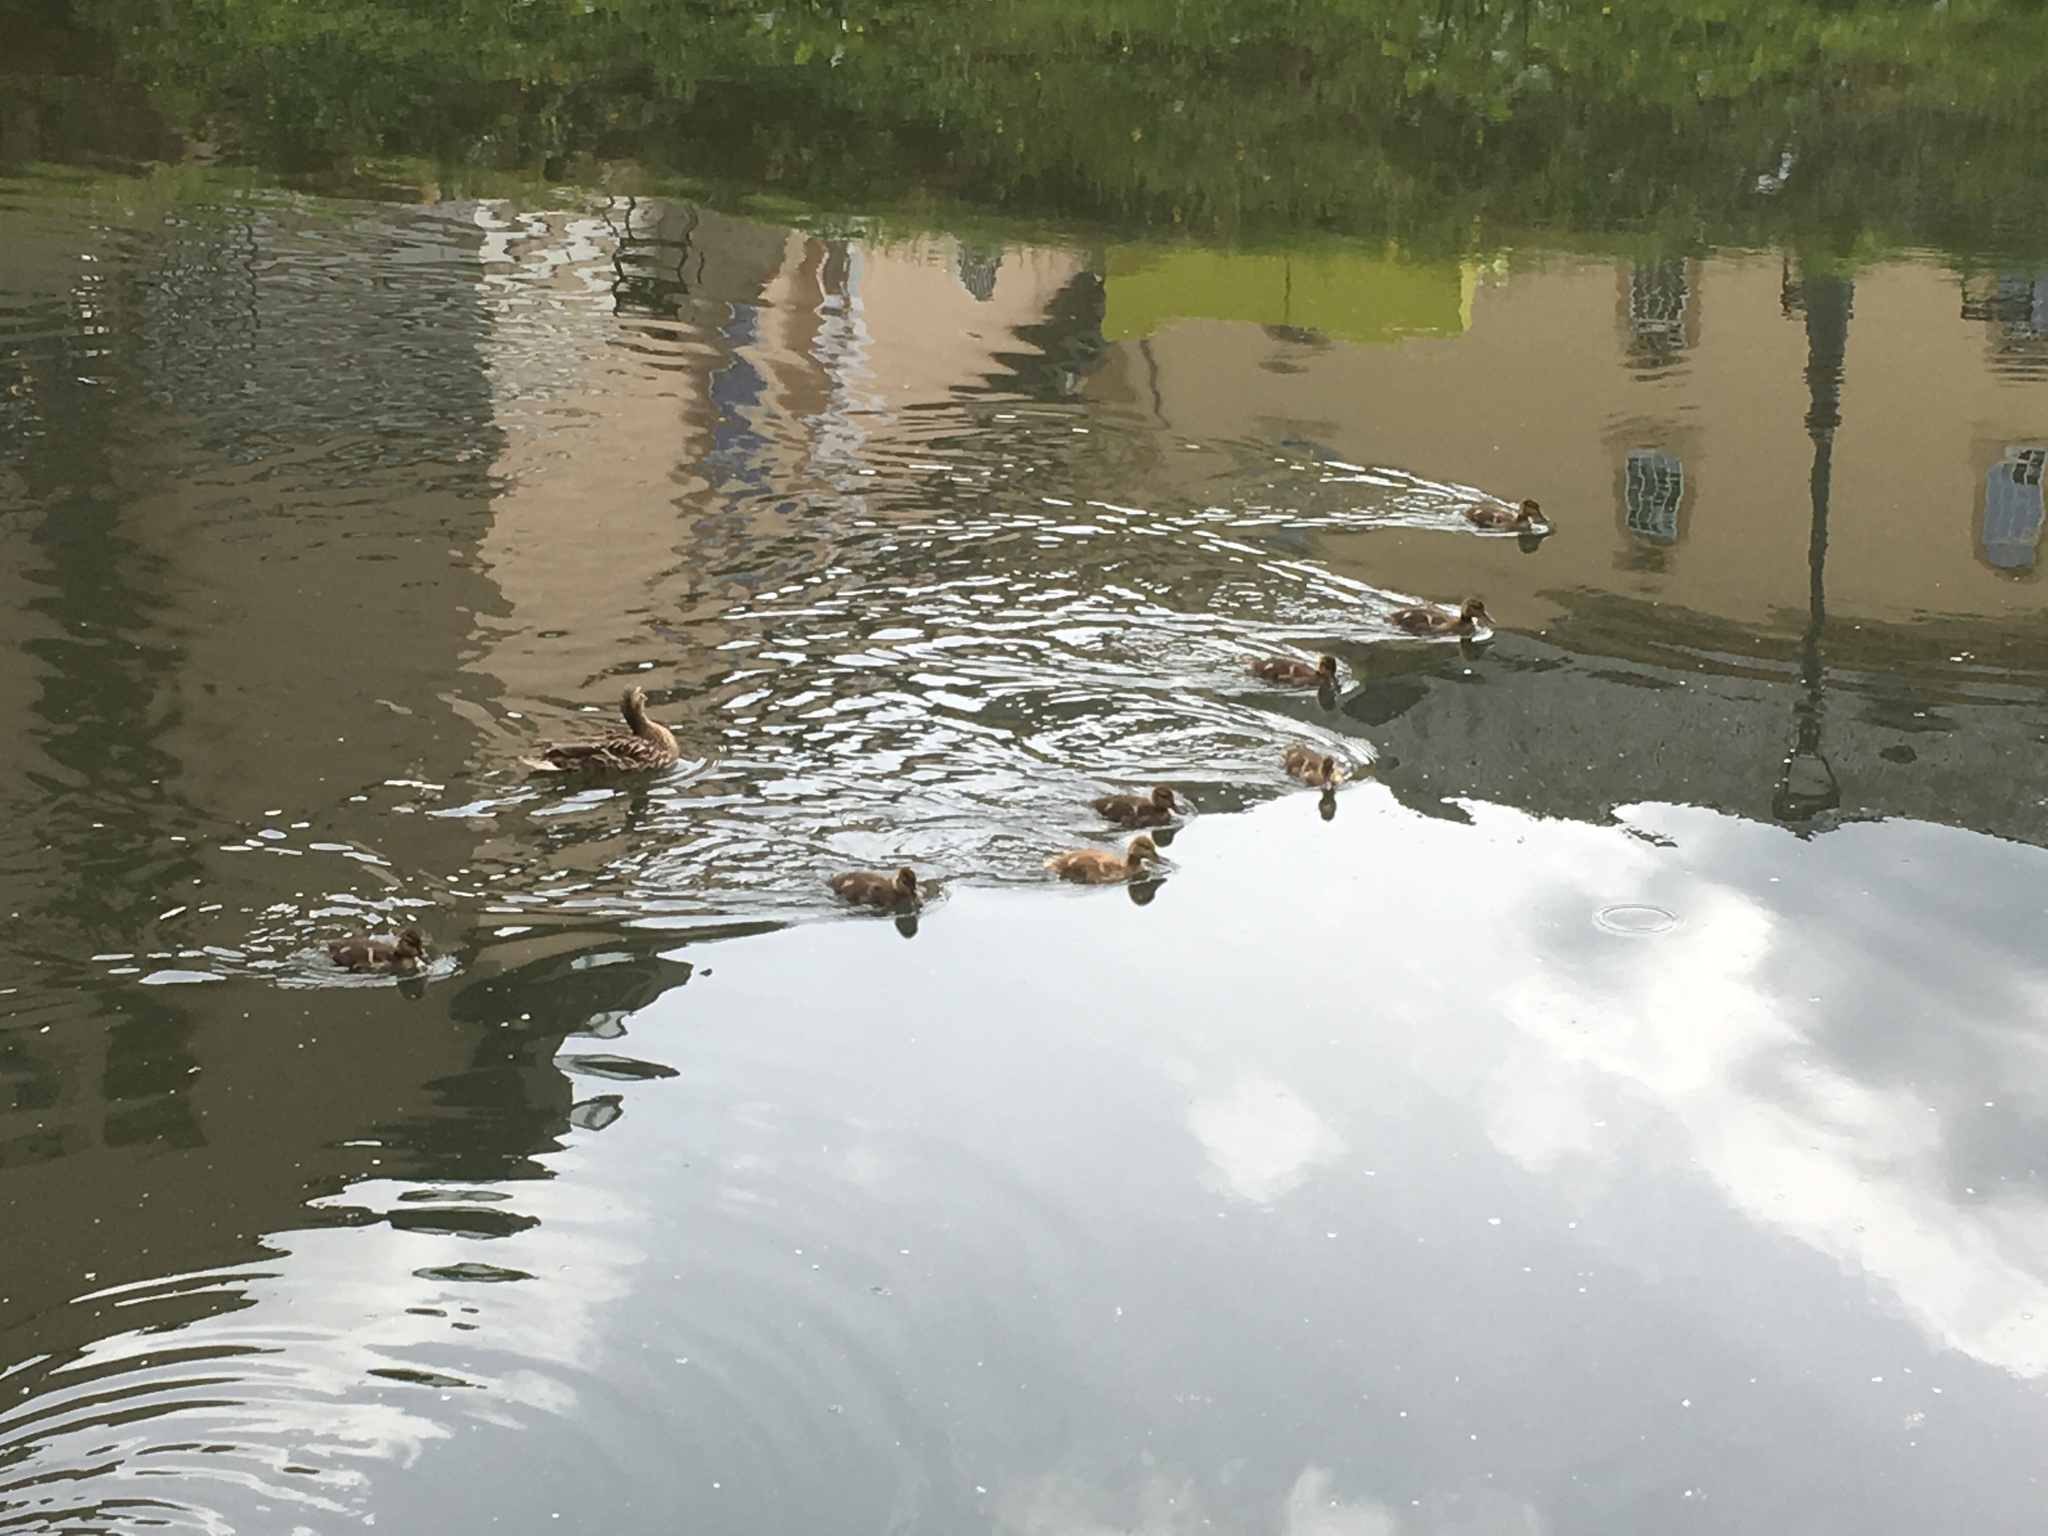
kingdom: Animalia
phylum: Chordata
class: Aves
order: Anseriformes
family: Anatidae
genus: Anas
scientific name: Anas platyrhynchos
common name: Mallard
